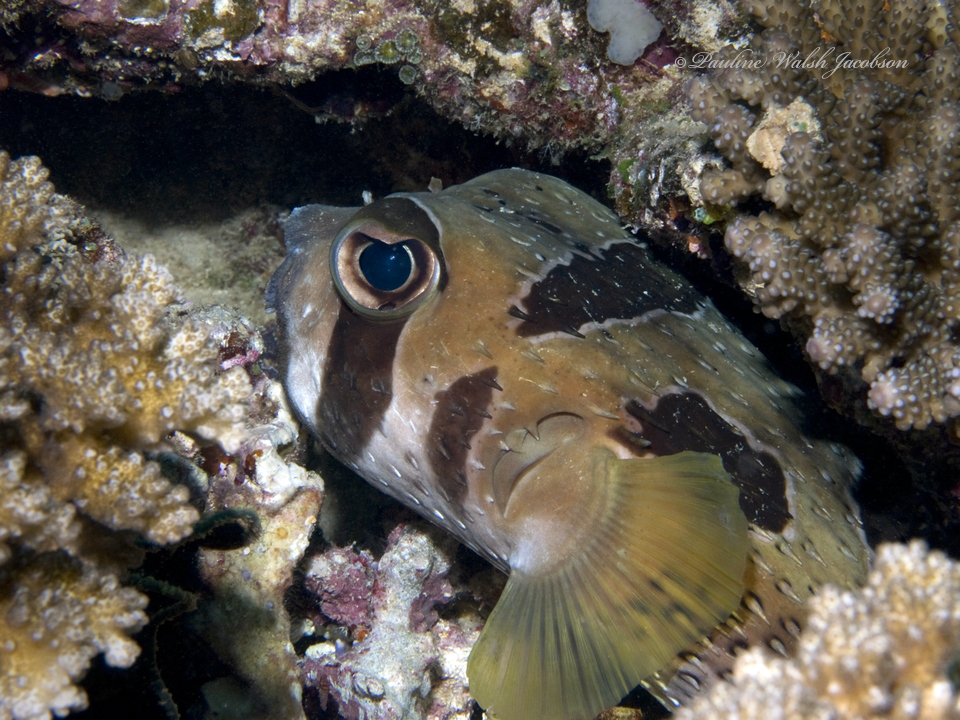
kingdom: Animalia
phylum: Chordata
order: Tetraodontiformes
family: Diodontidae
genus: Diodon
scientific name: Diodon liturosus
